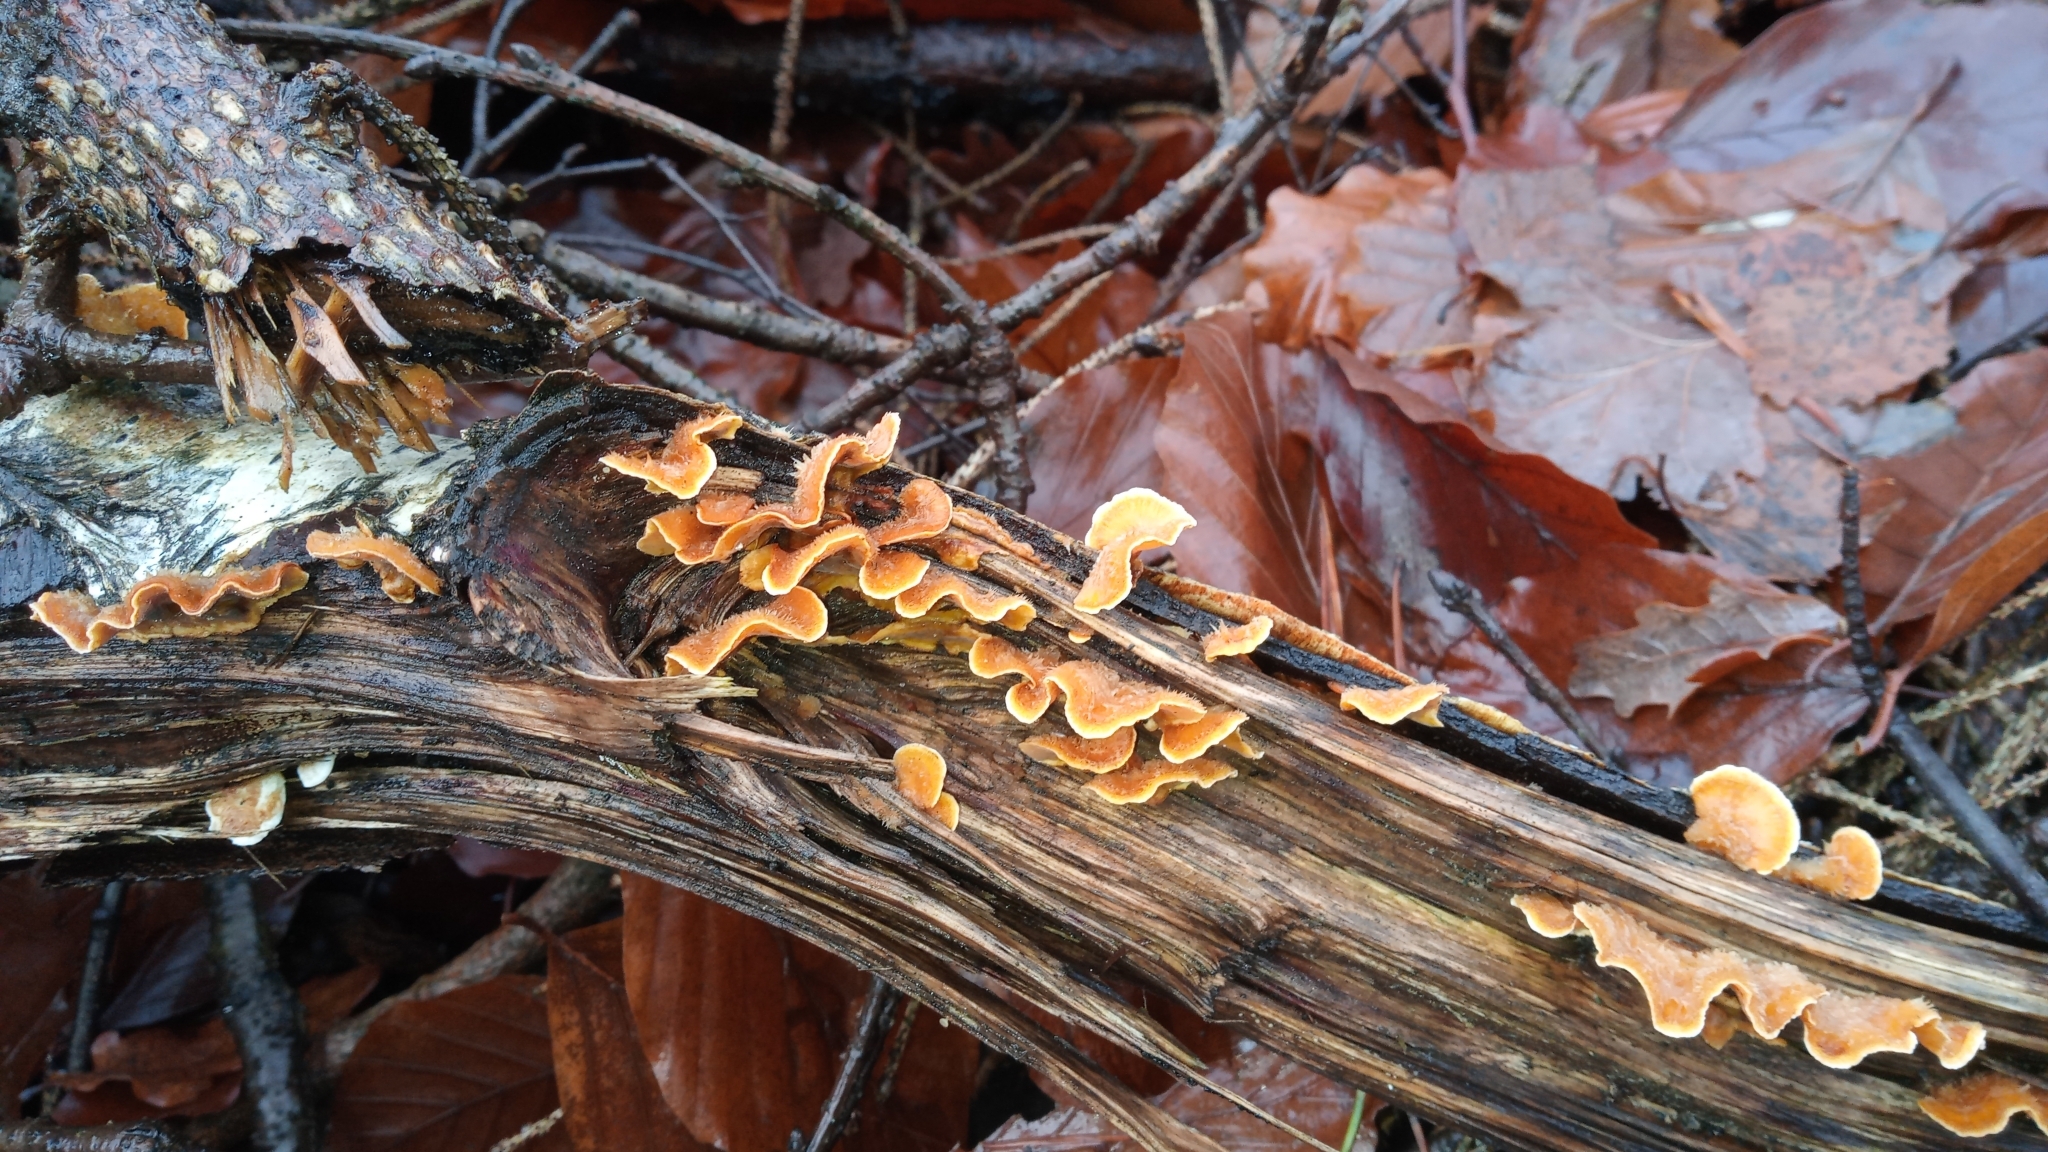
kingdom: Fungi
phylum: Basidiomycota
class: Agaricomycetes
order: Russulales
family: Stereaceae
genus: Stereum
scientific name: Stereum hirsutum
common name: Hairy curtain crust
